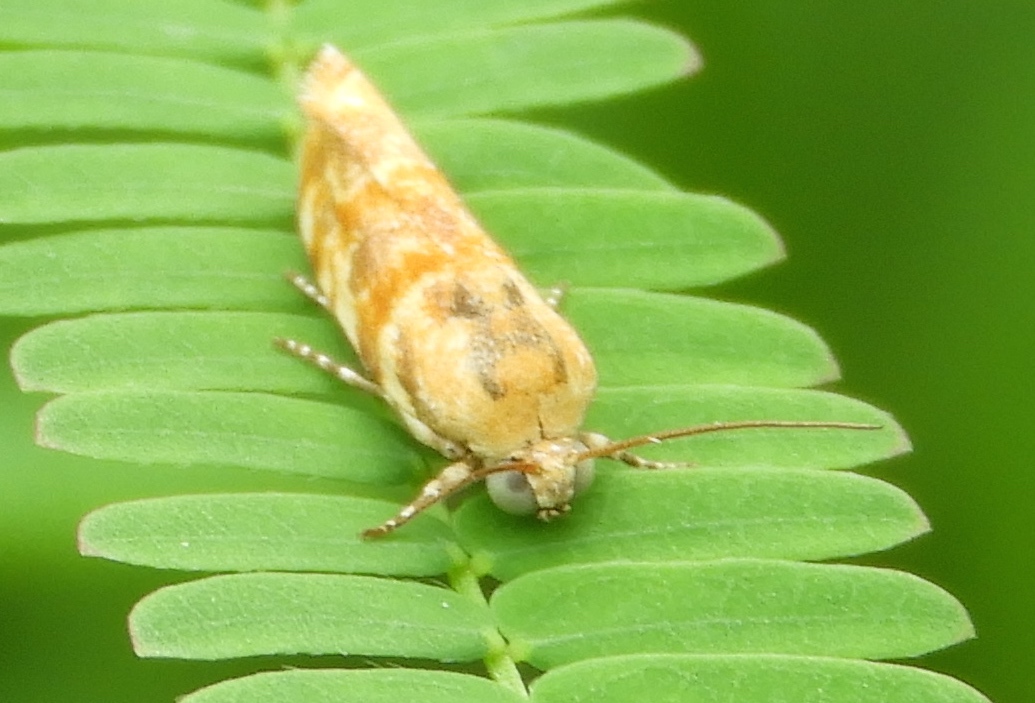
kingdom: Animalia
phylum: Arthropoda
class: Insecta
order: Lepidoptera
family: Noctuidae
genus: Spragueia
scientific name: Spragueia jaguaralis
